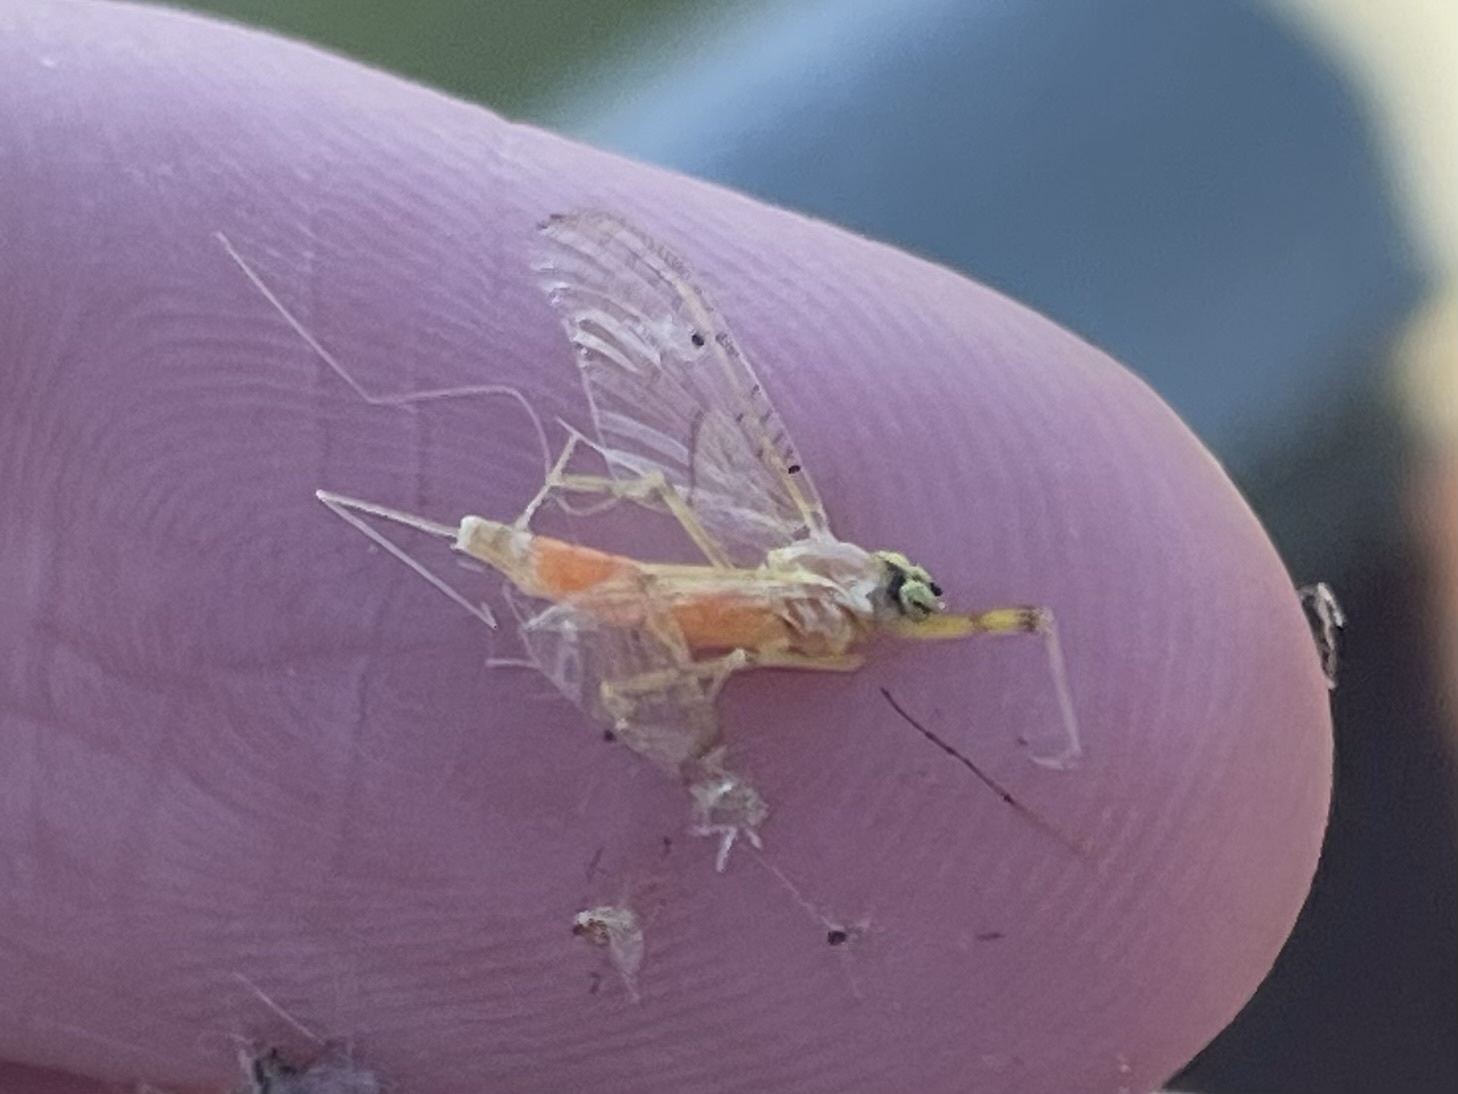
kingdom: Animalia
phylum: Arthropoda
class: Insecta
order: Ephemeroptera
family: Heptageniidae
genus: Stenacron
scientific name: Stenacron interpunctatum
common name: Orange cahill
